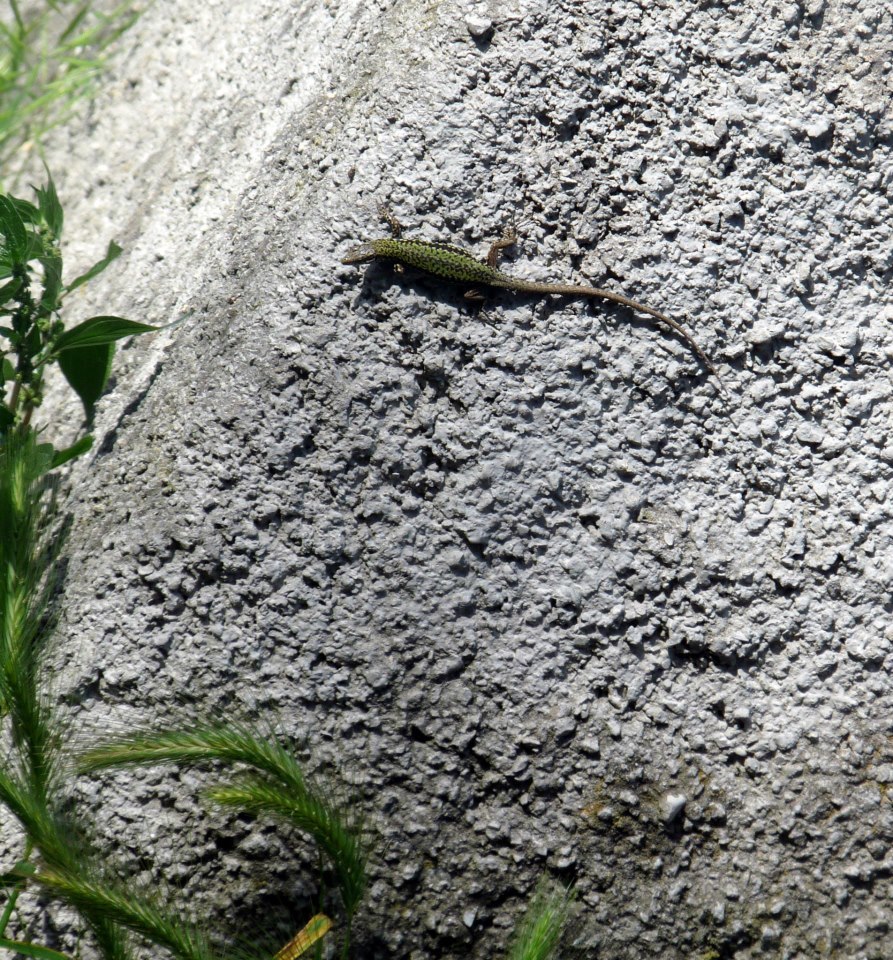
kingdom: Animalia
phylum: Chordata
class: Squamata
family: Lacertidae
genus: Podarcis
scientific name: Podarcis muralis
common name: Common wall lizard
